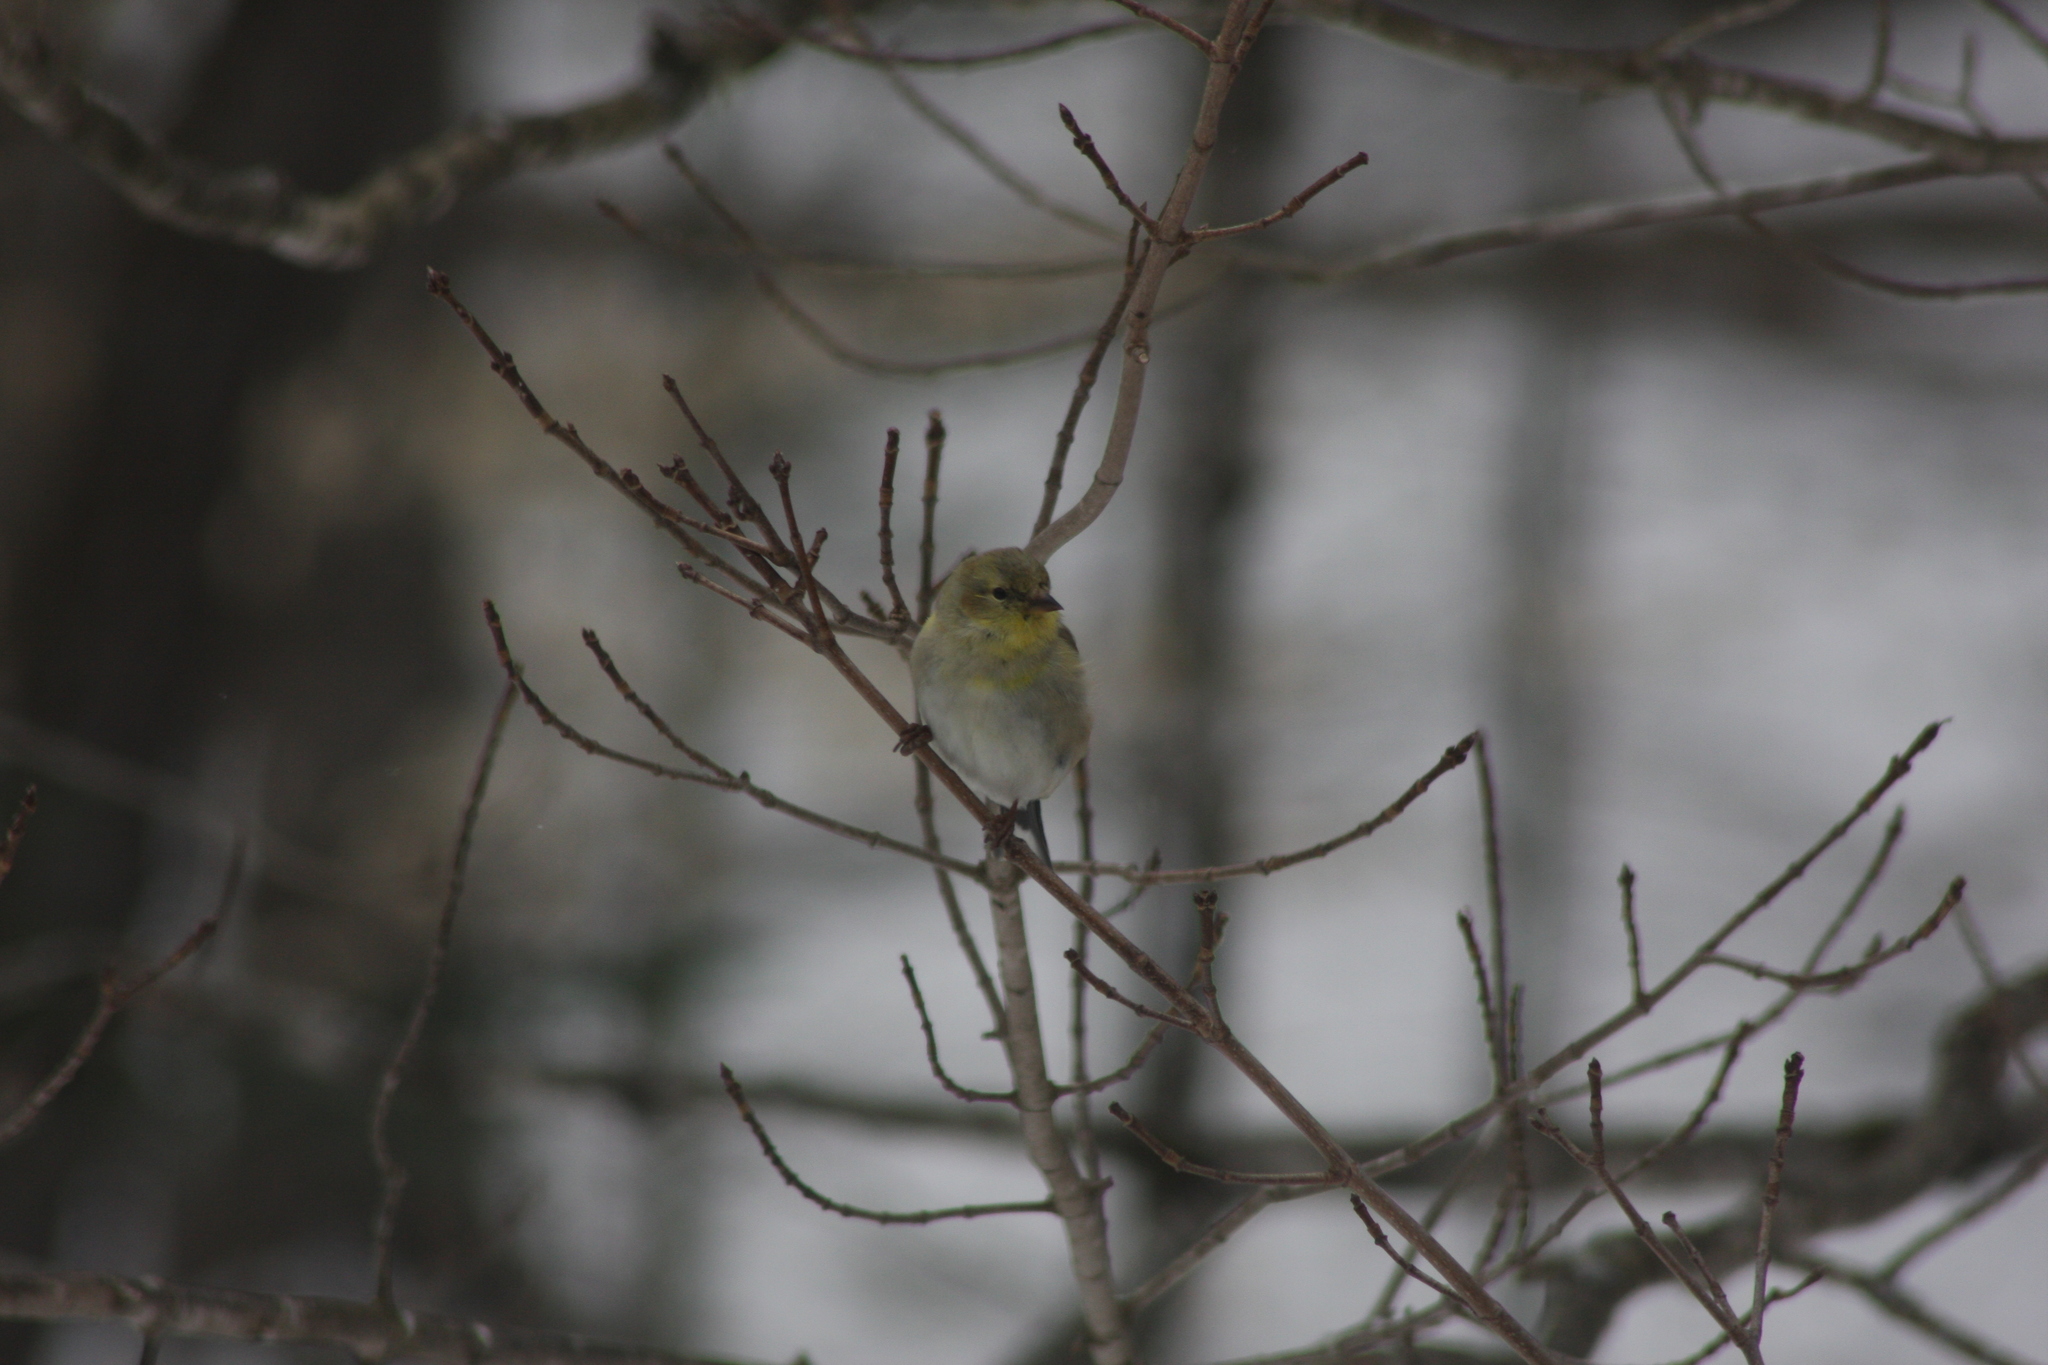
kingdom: Animalia
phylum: Chordata
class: Aves
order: Passeriformes
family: Fringillidae
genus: Spinus
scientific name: Spinus tristis
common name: American goldfinch
